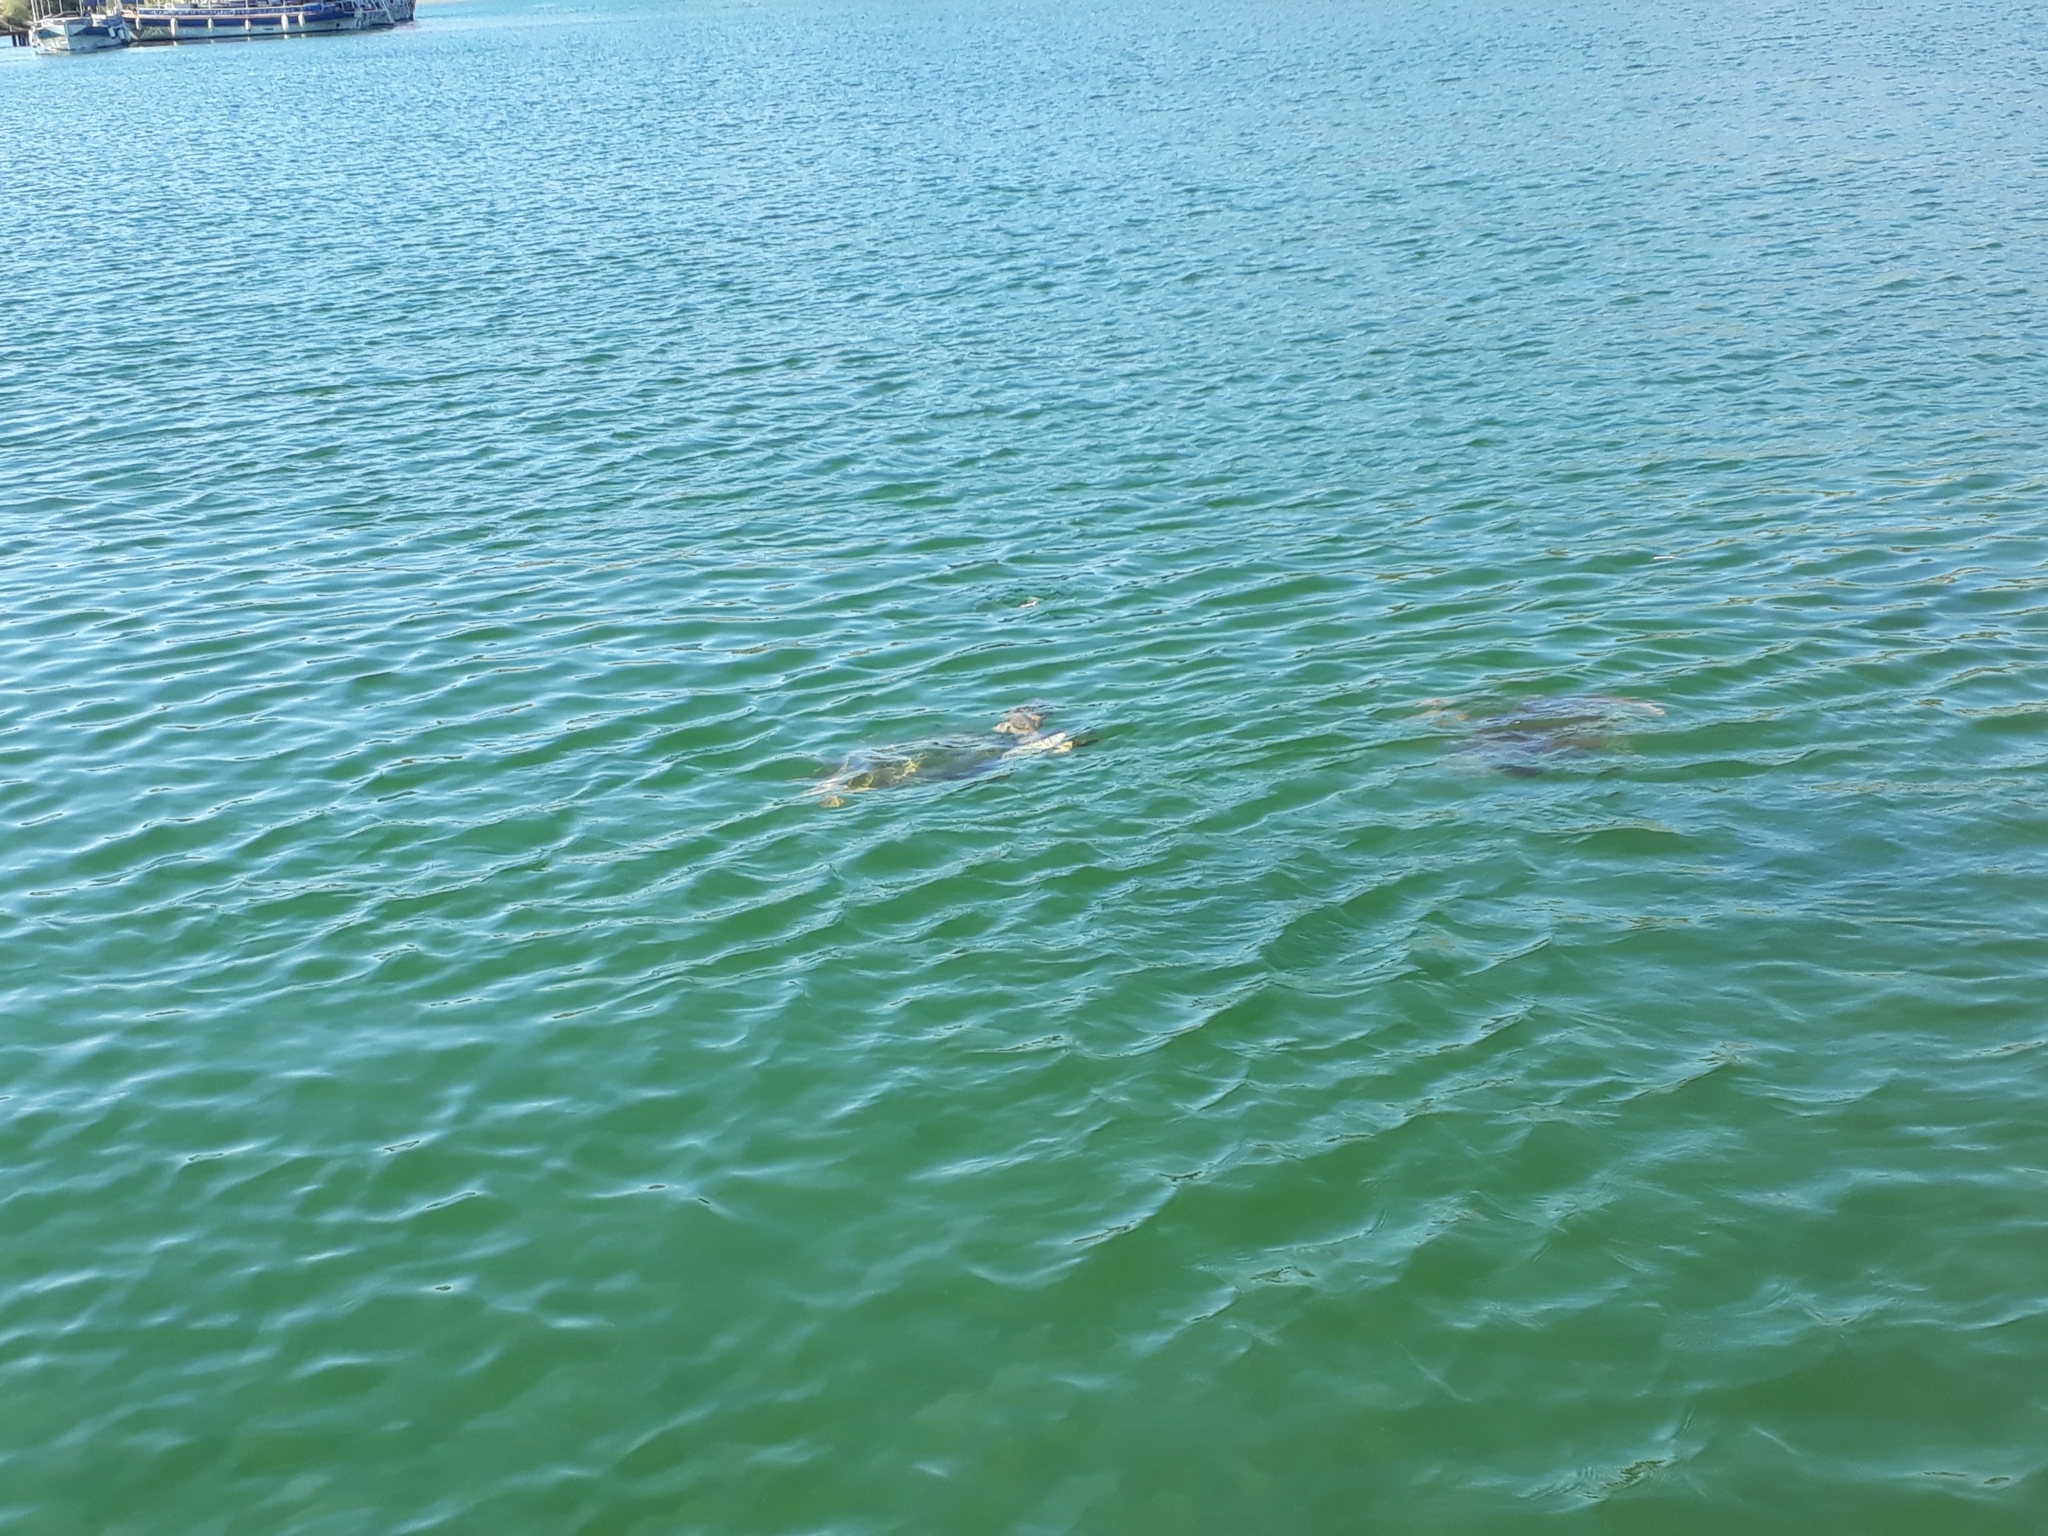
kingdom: Animalia
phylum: Chordata
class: Testudines
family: Cheloniidae
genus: Caretta
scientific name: Caretta caretta
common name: Loggerhead sea turtle
